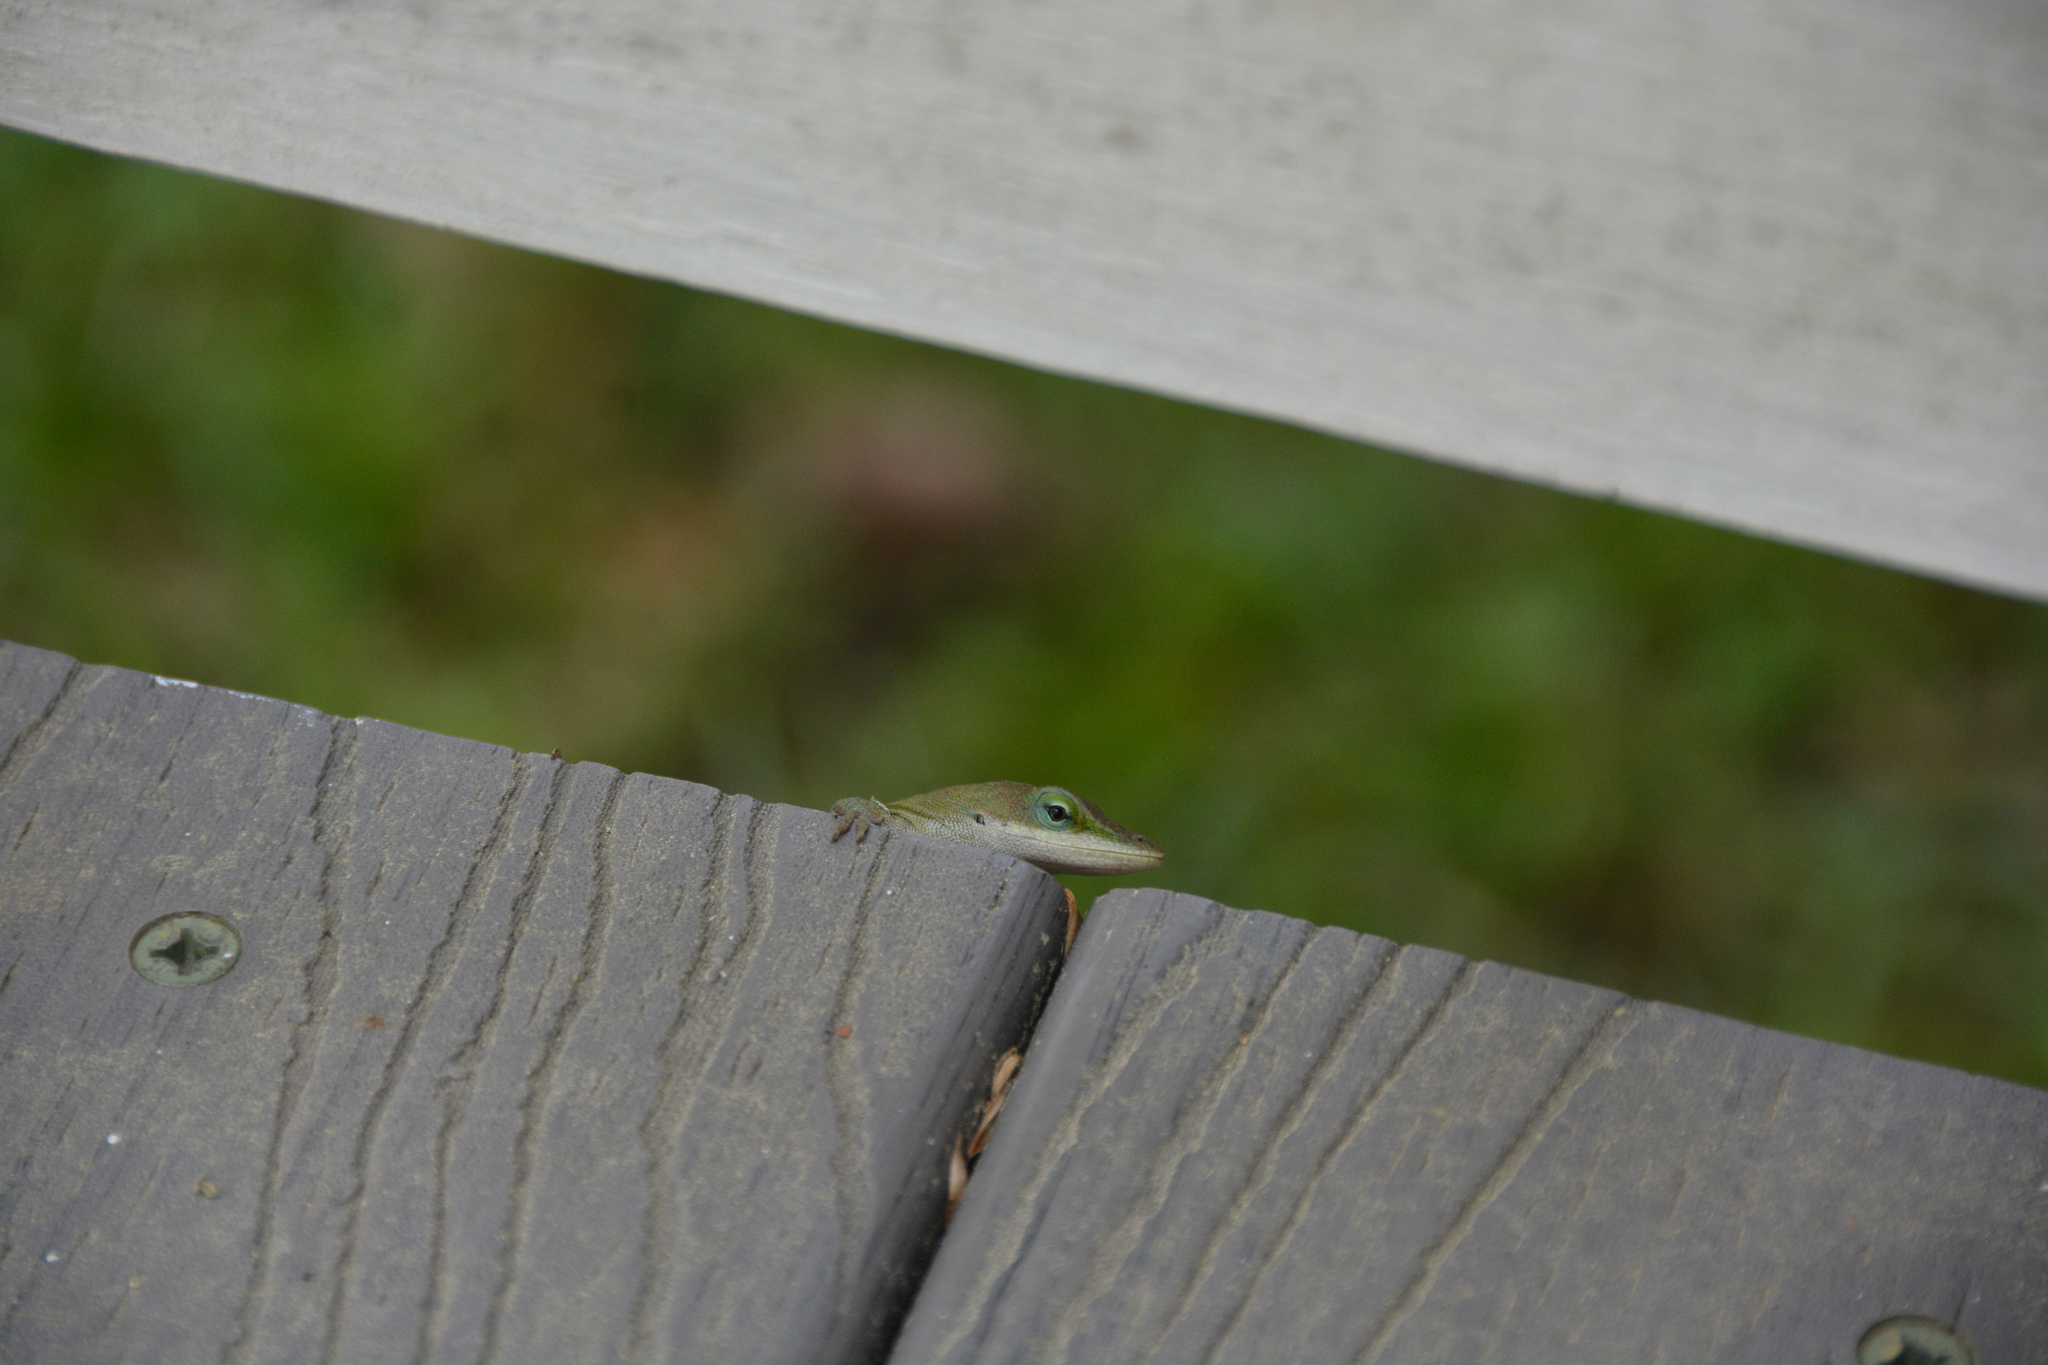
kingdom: Animalia
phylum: Chordata
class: Squamata
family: Dactyloidae
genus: Anolis
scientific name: Anolis carolinensis
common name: Green anole
